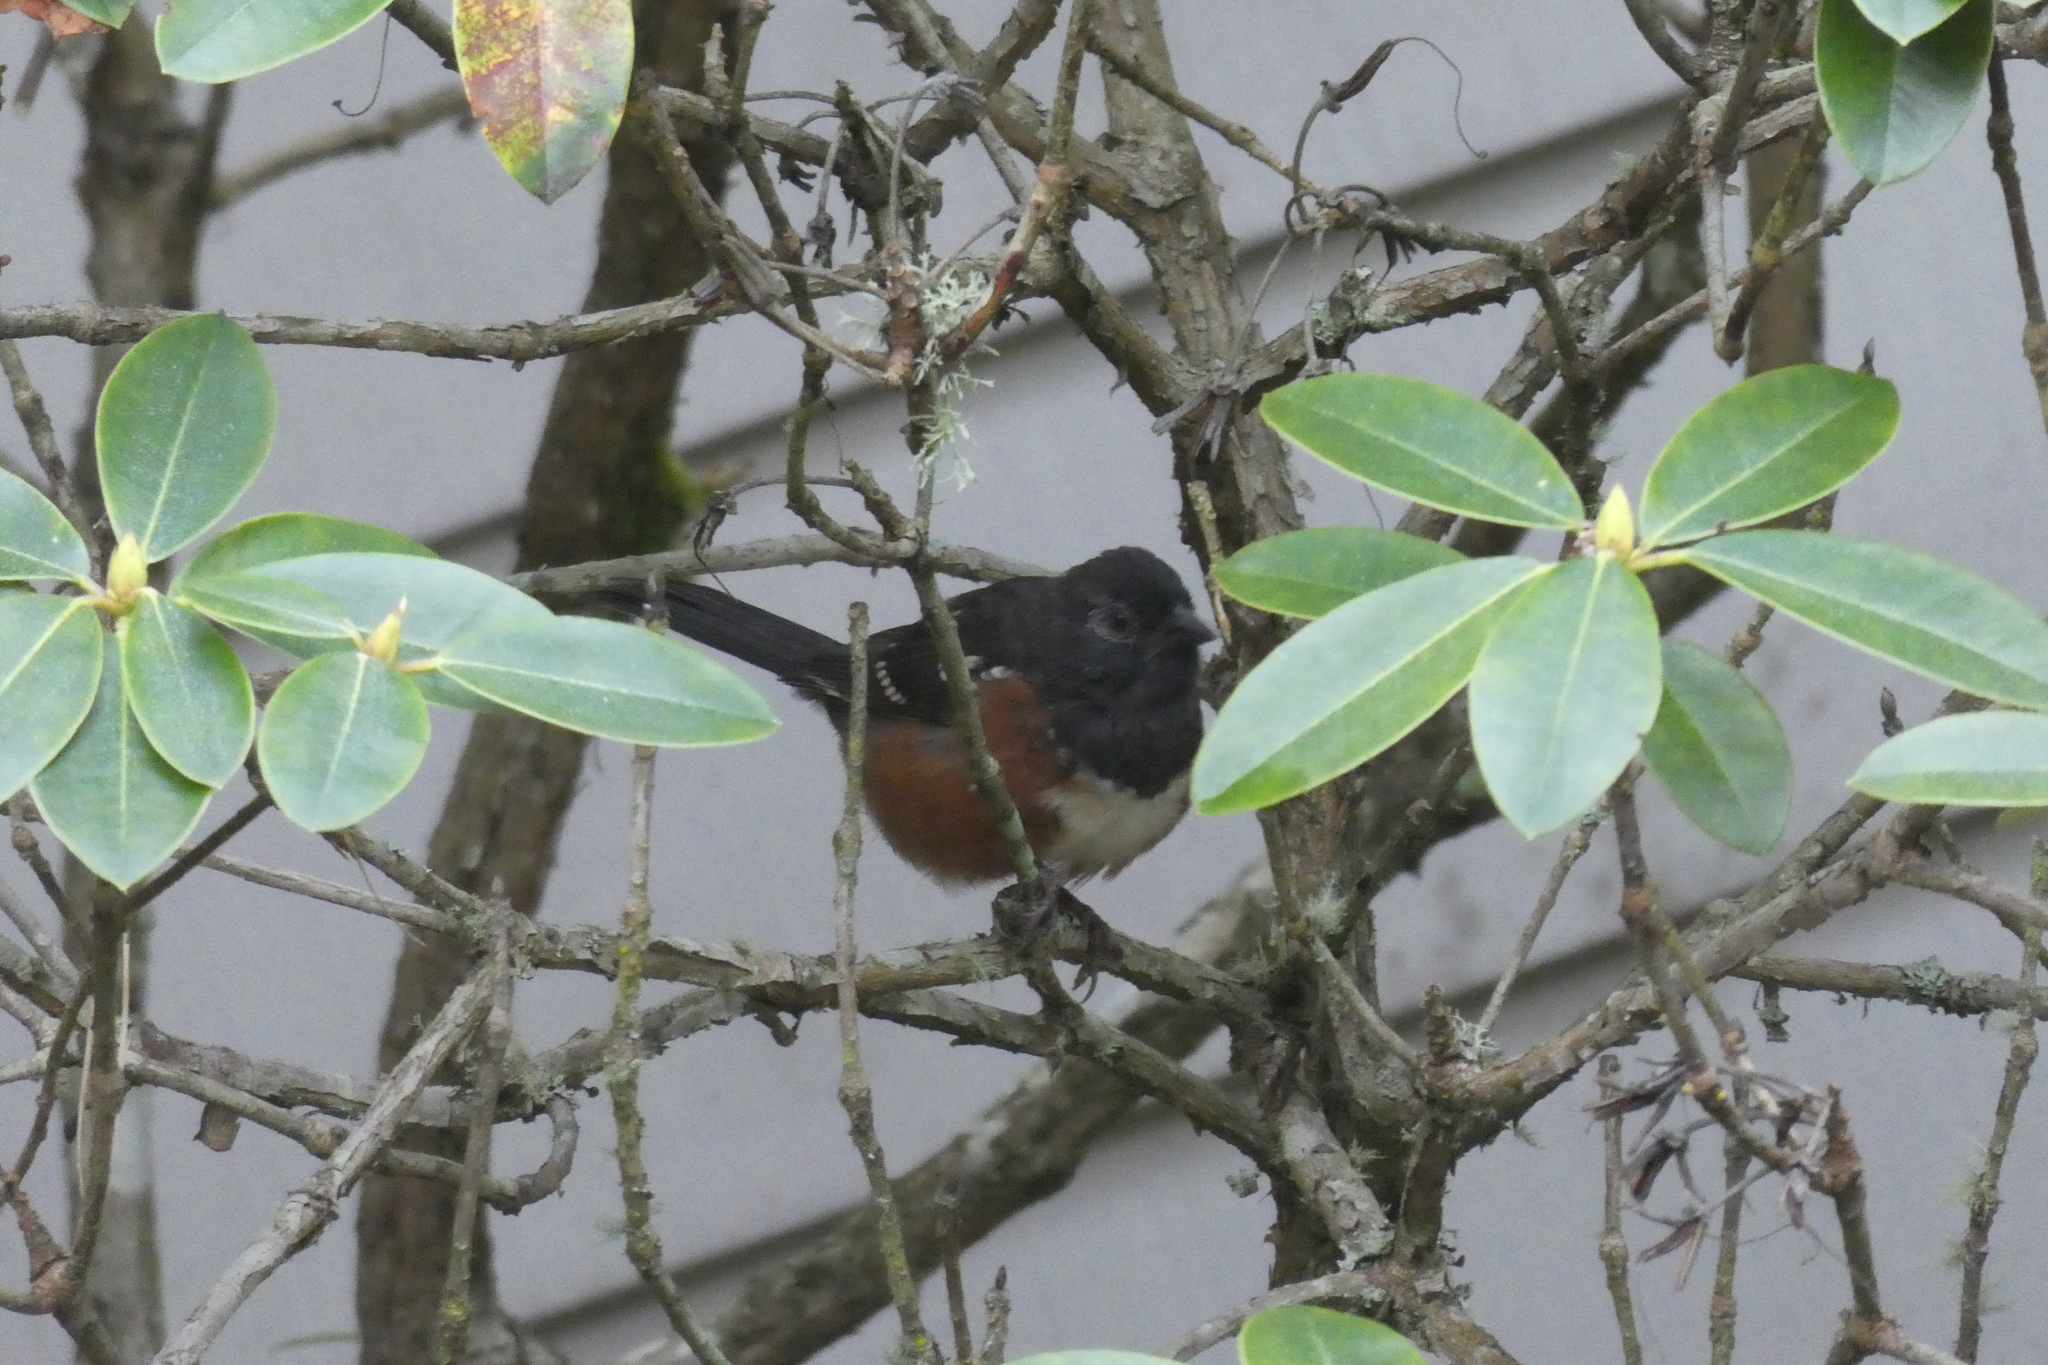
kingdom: Animalia
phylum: Chordata
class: Aves
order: Passeriformes
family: Passerellidae
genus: Pipilo
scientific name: Pipilo maculatus
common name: Spotted towhee
